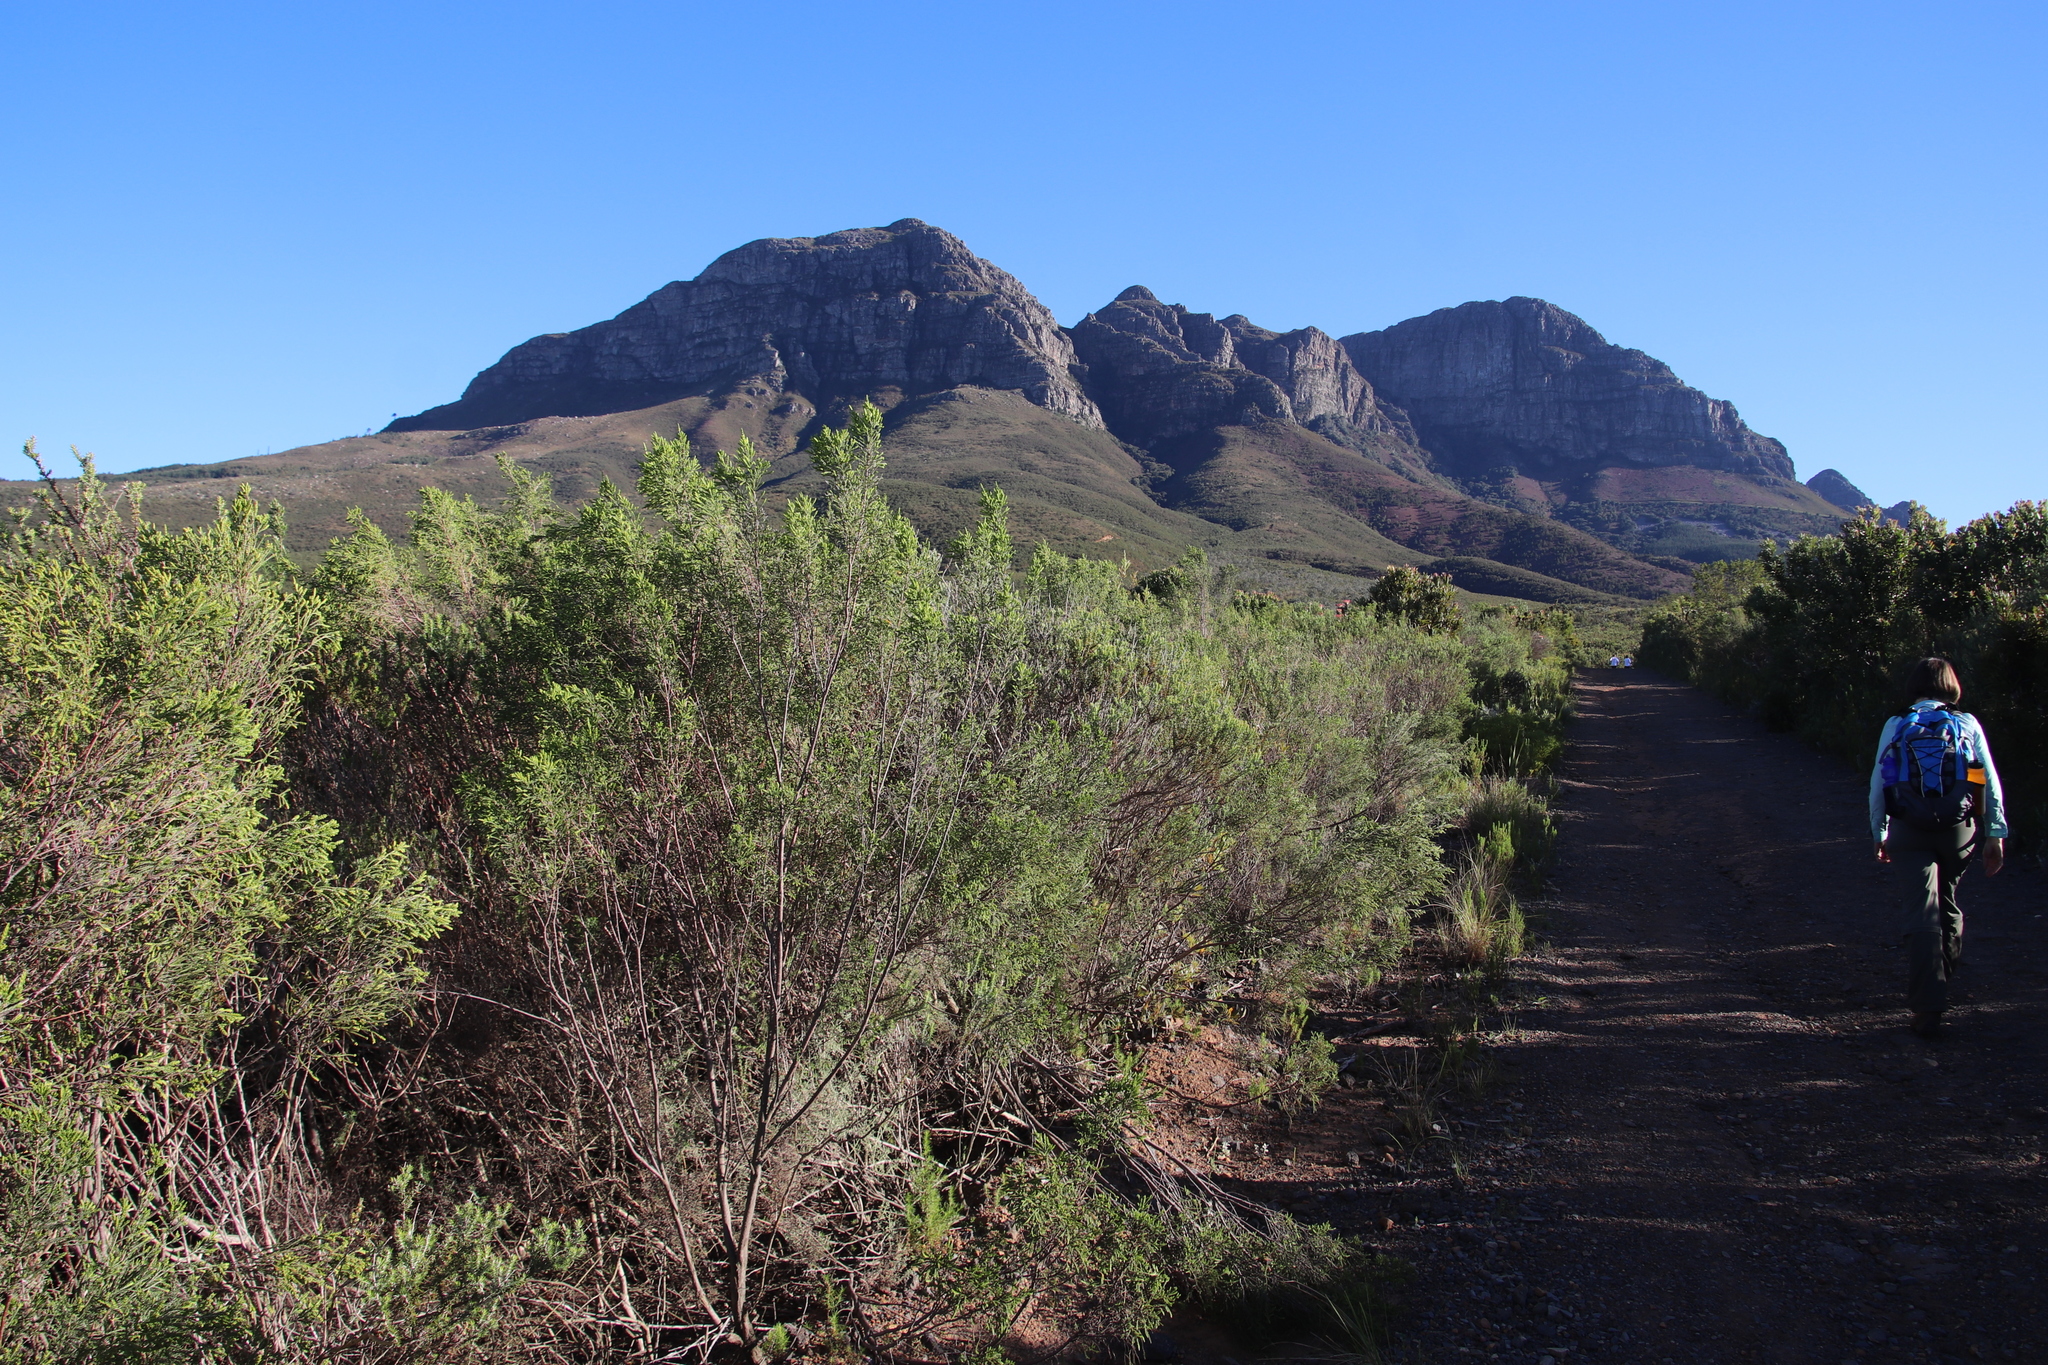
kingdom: Plantae
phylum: Tracheophyta
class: Magnoliopsida
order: Malvales
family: Thymelaeaceae
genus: Passerina
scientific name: Passerina corymbosa
